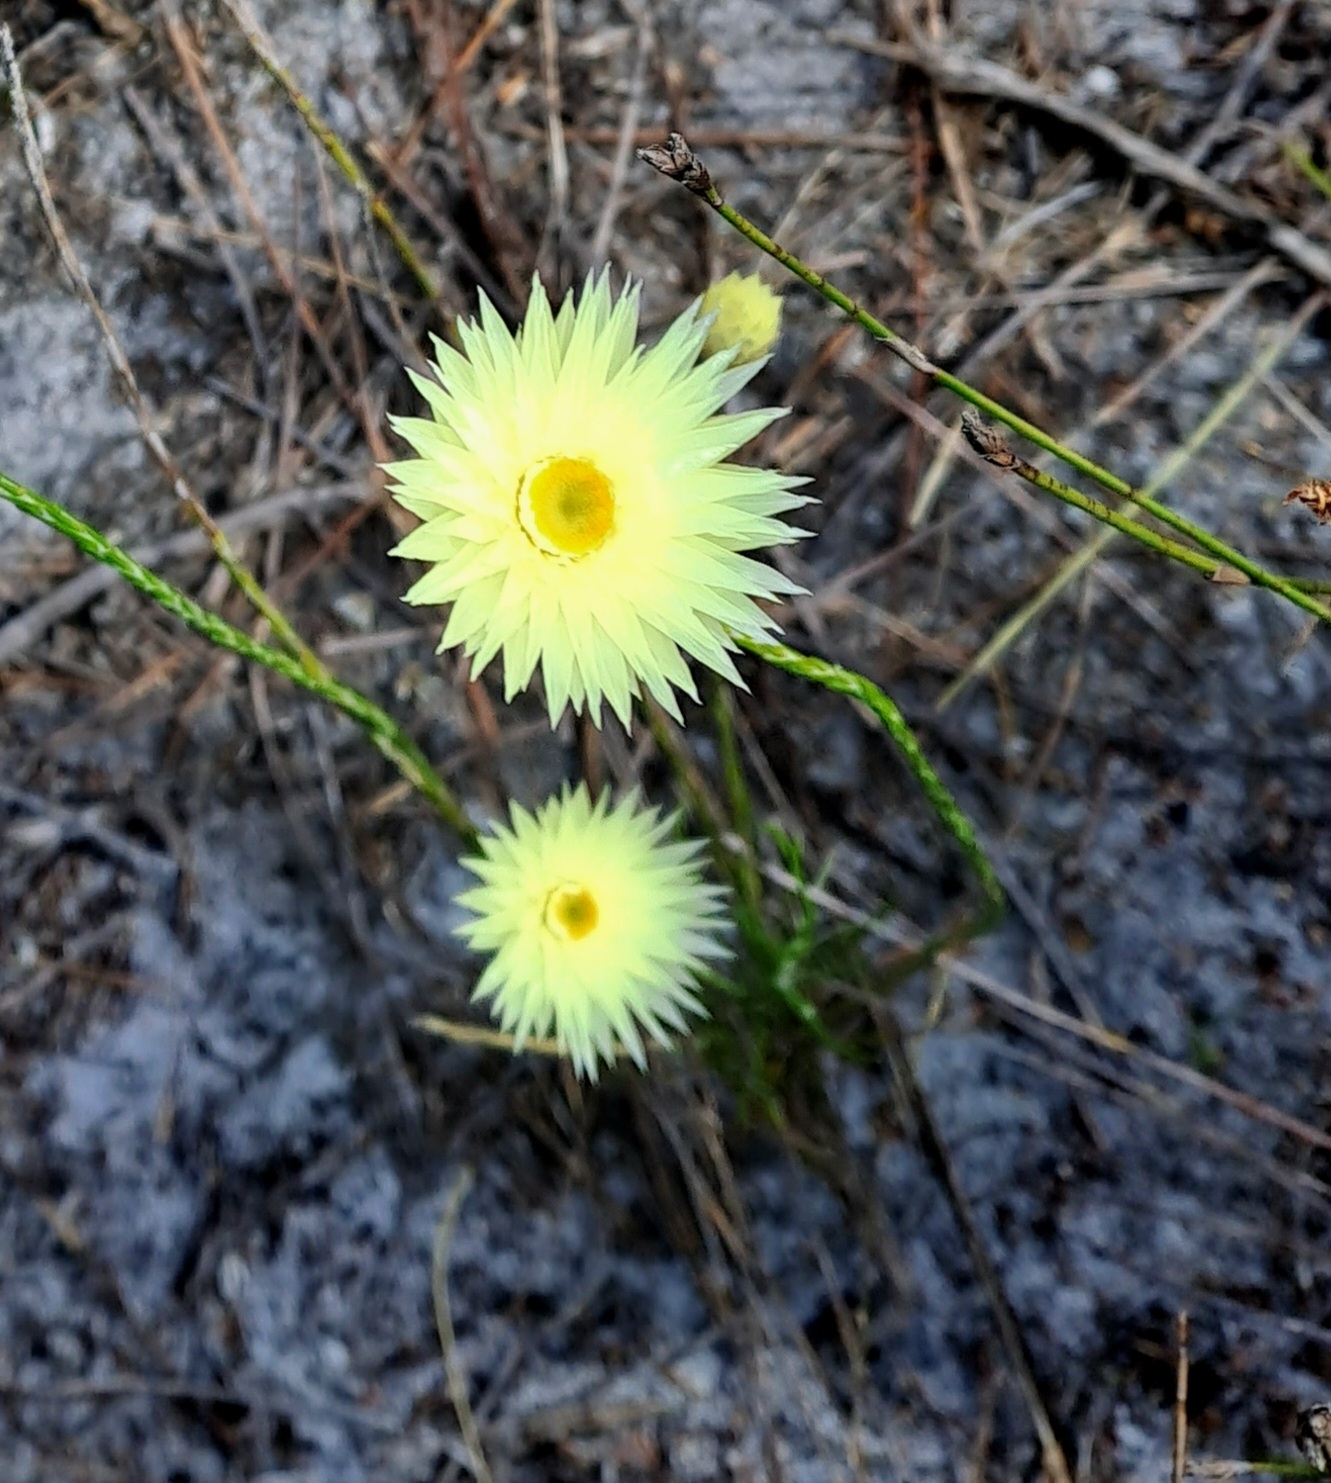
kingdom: Plantae
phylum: Tracheophyta
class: Magnoliopsida
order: Asterales
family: Asteraceae
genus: Edmondia
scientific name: Edmondia sesamoides
